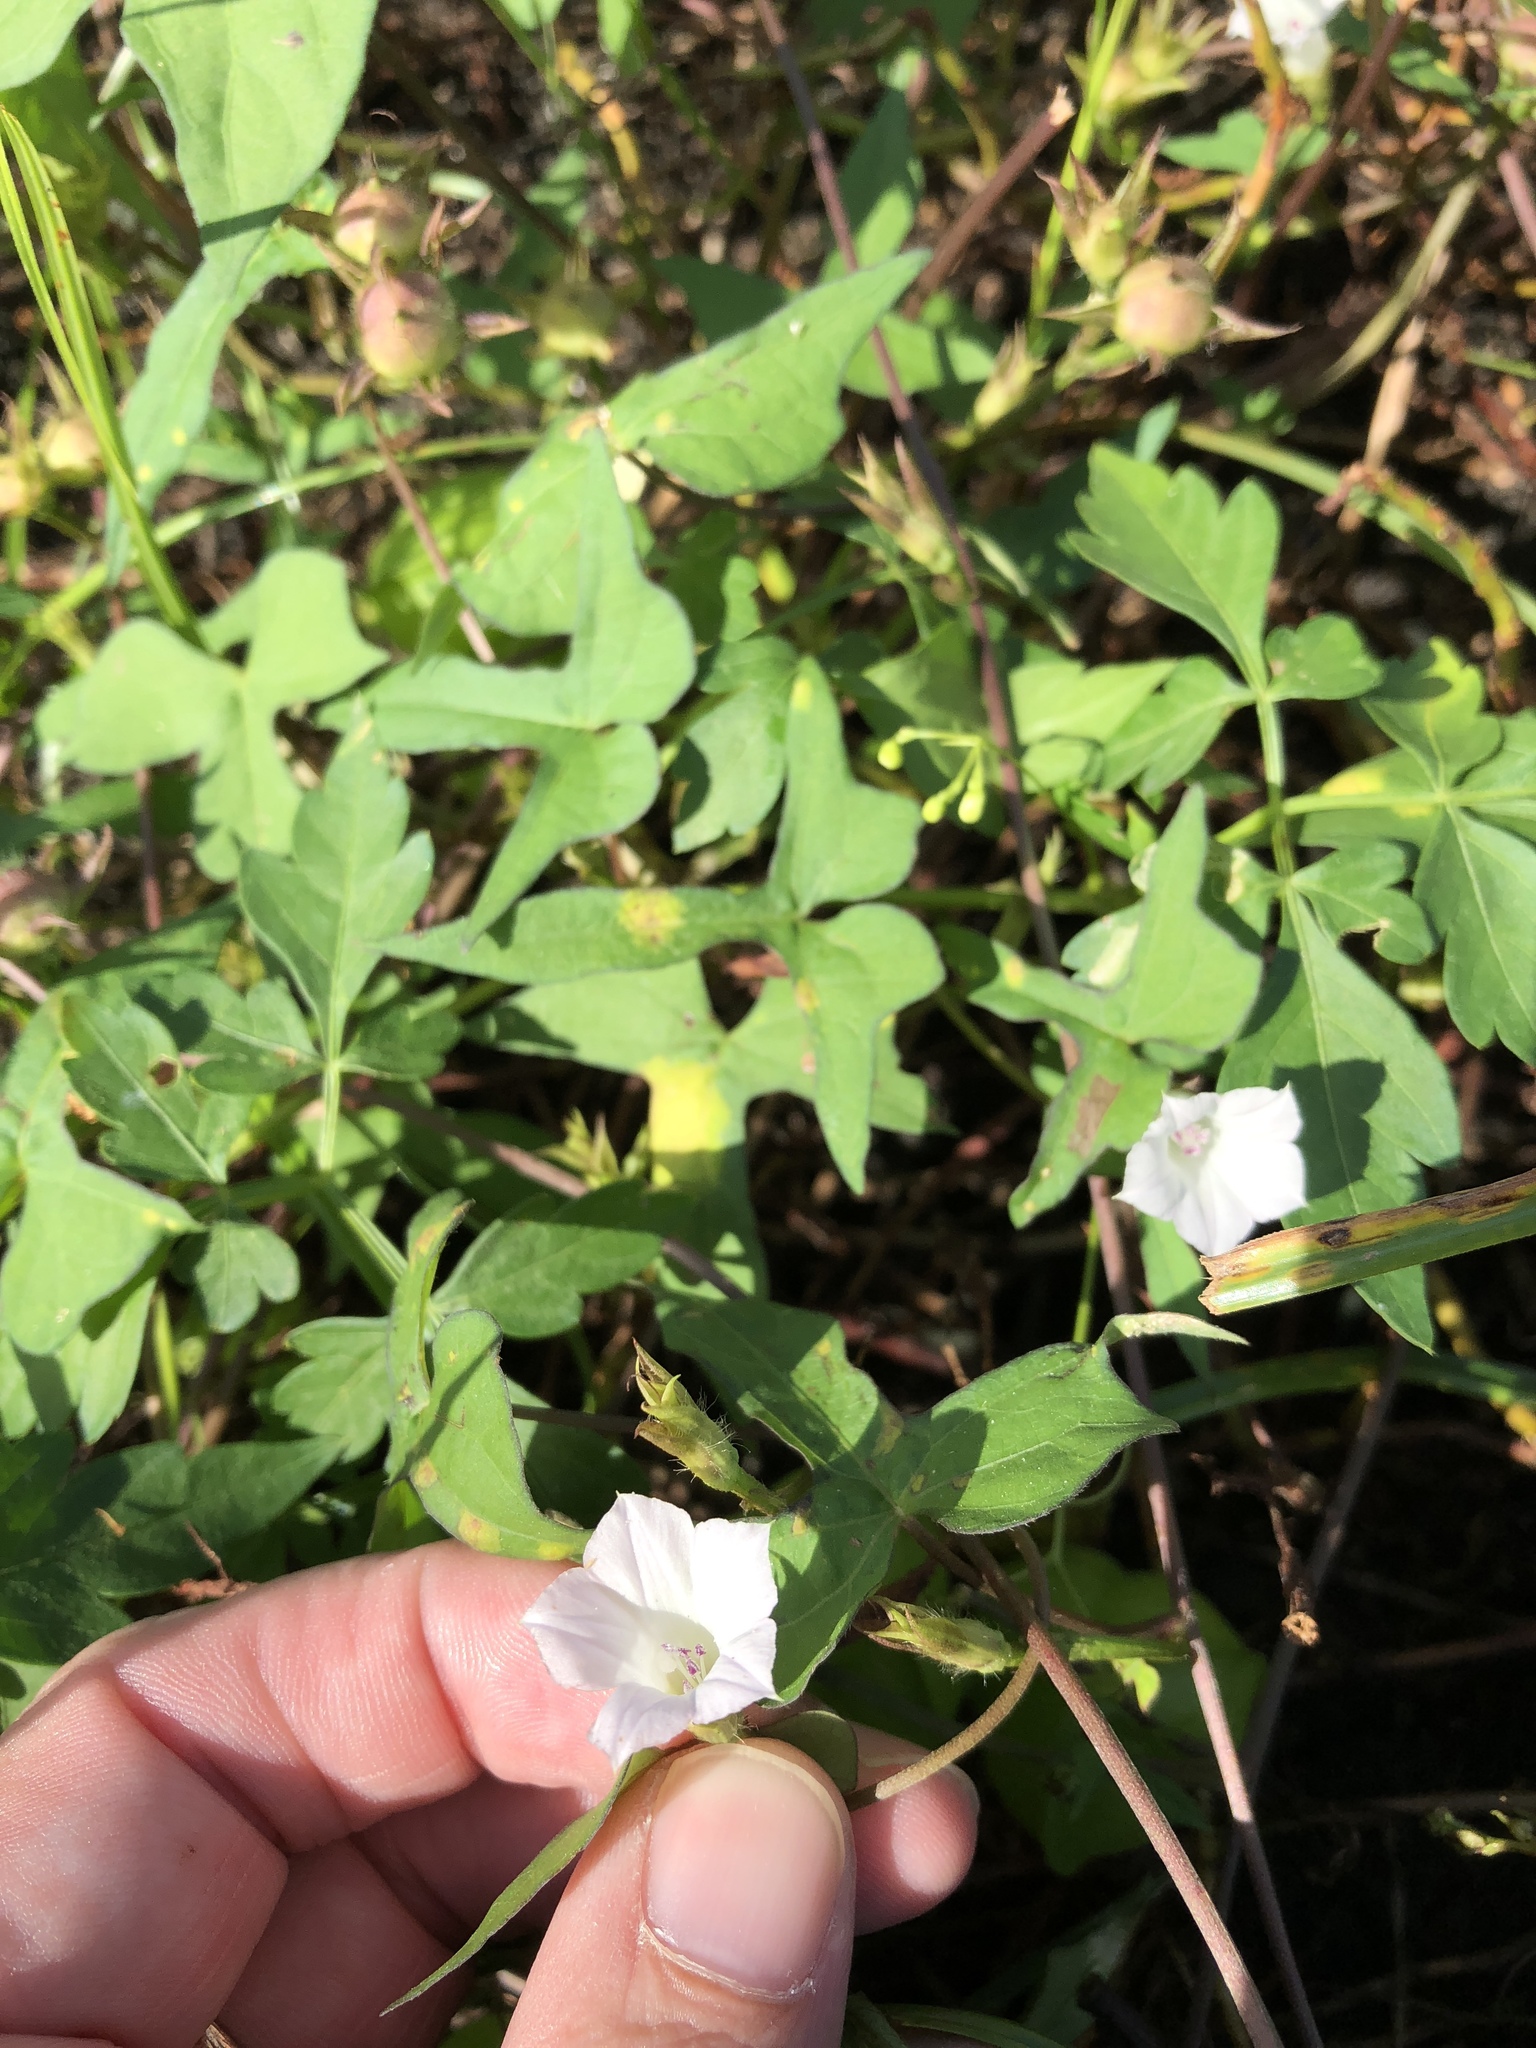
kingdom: Plantae
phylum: Tracheophyta
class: Magnoliopsida
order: Solanales
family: Convolvulaceae
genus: Ipomoea
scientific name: Ipomoea lacunosa
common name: White morning-glory
